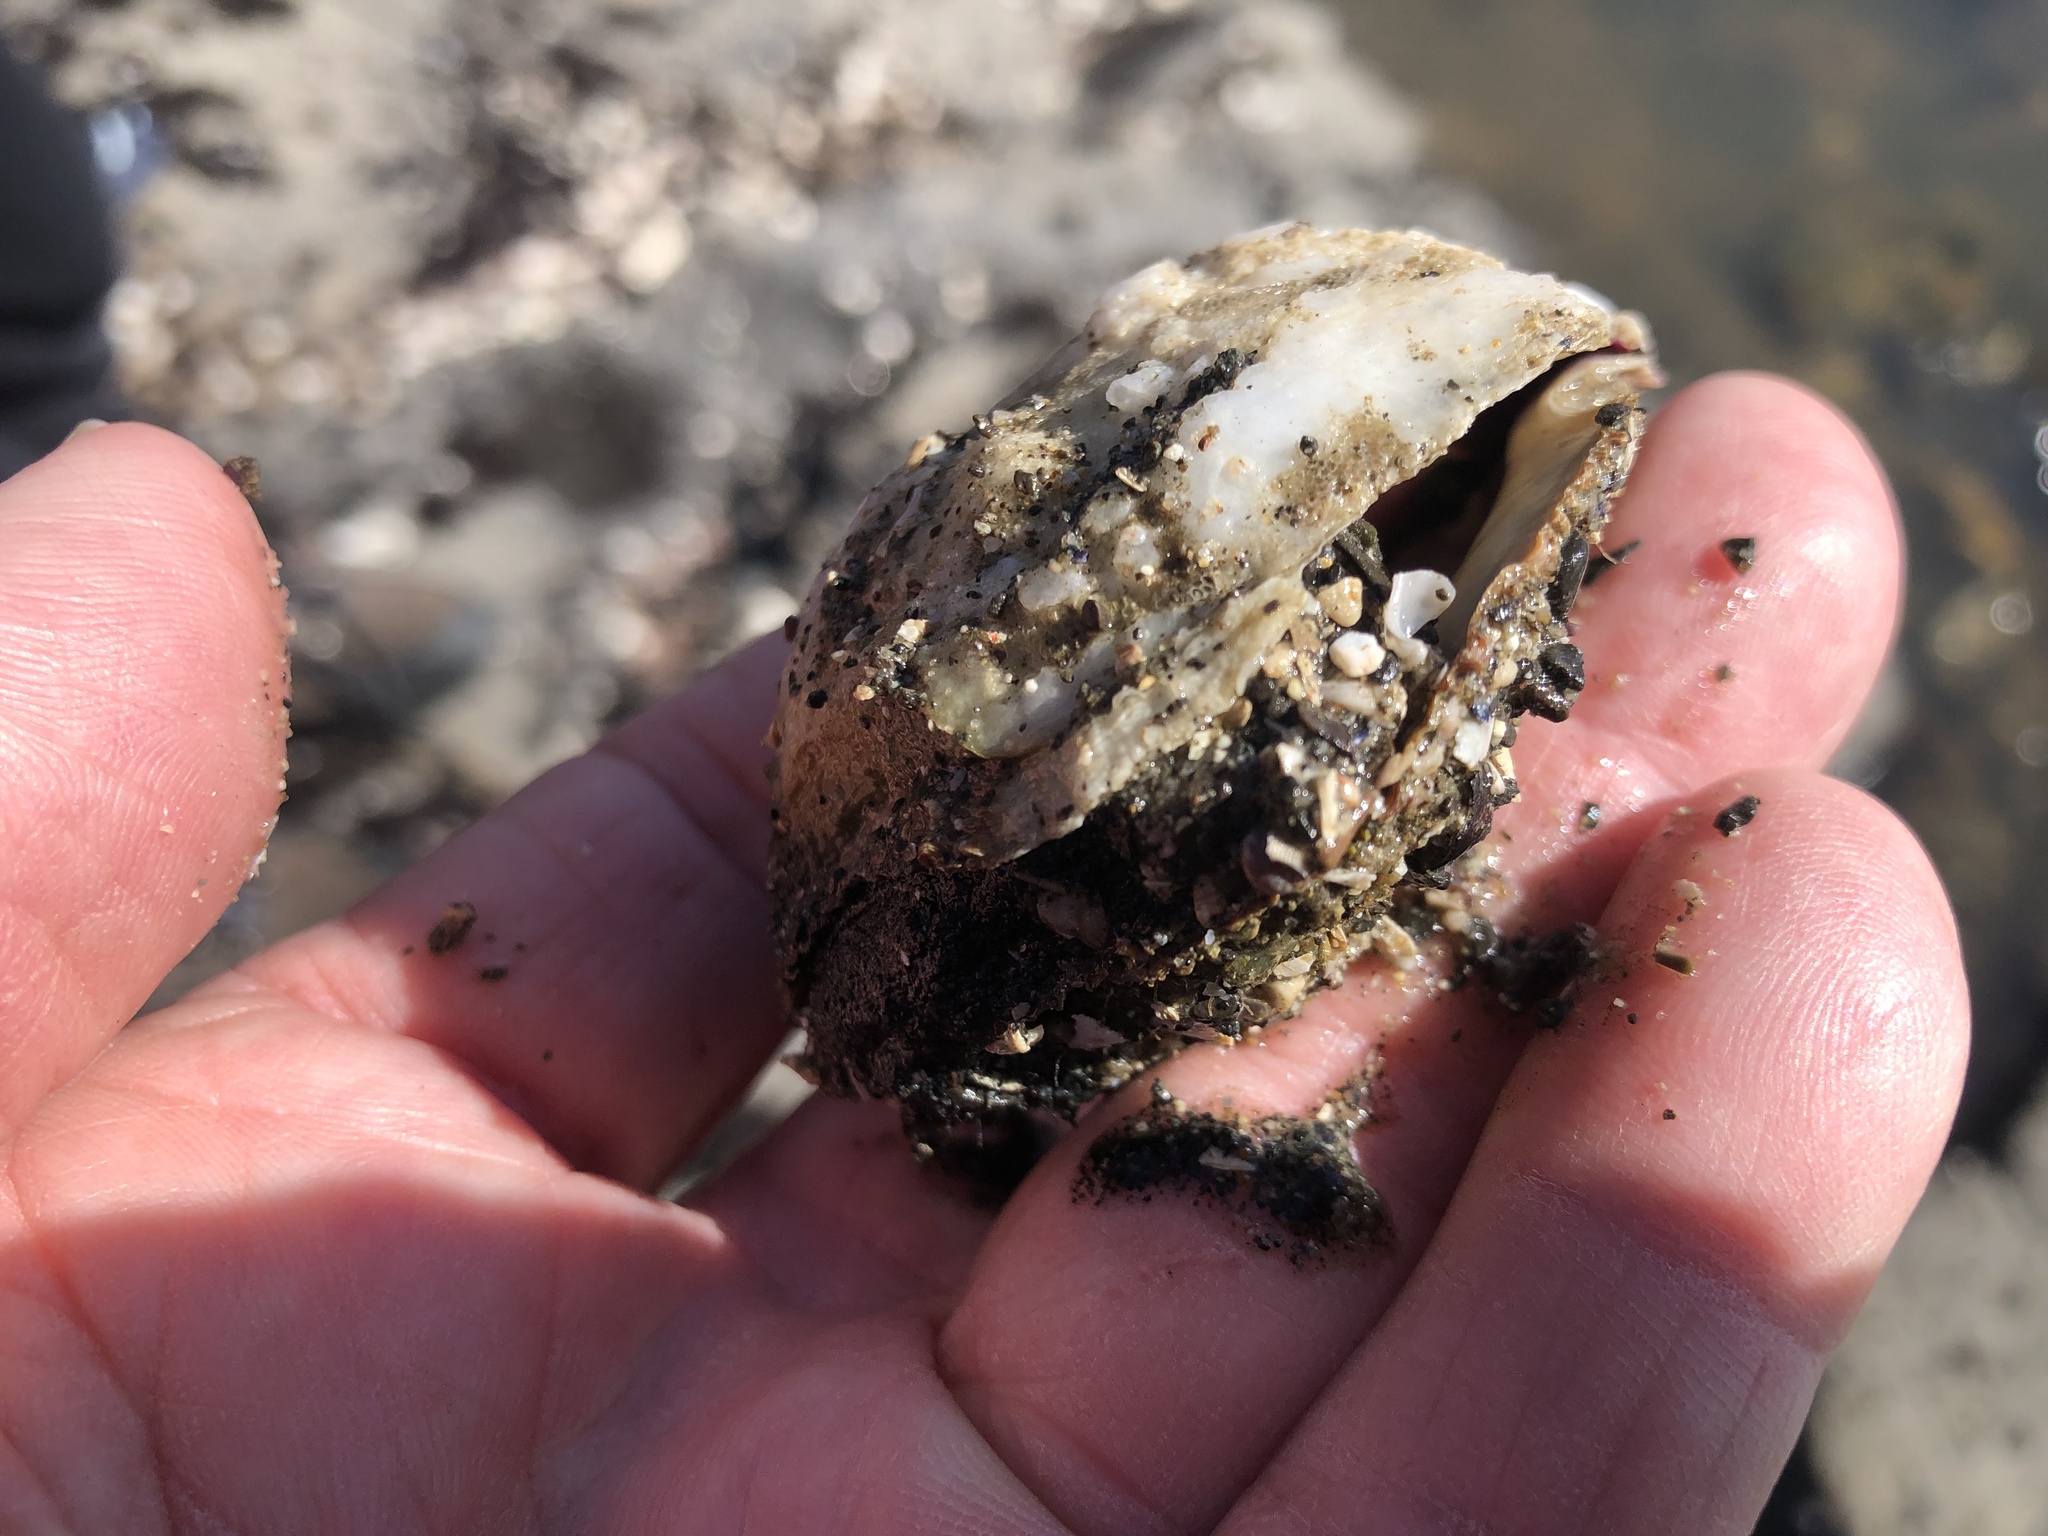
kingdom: Animalia
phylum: Mollusca
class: Bivalvia
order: Pectinida
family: Pectinidae
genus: Crassadoma
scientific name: Crassadoma gigantea
